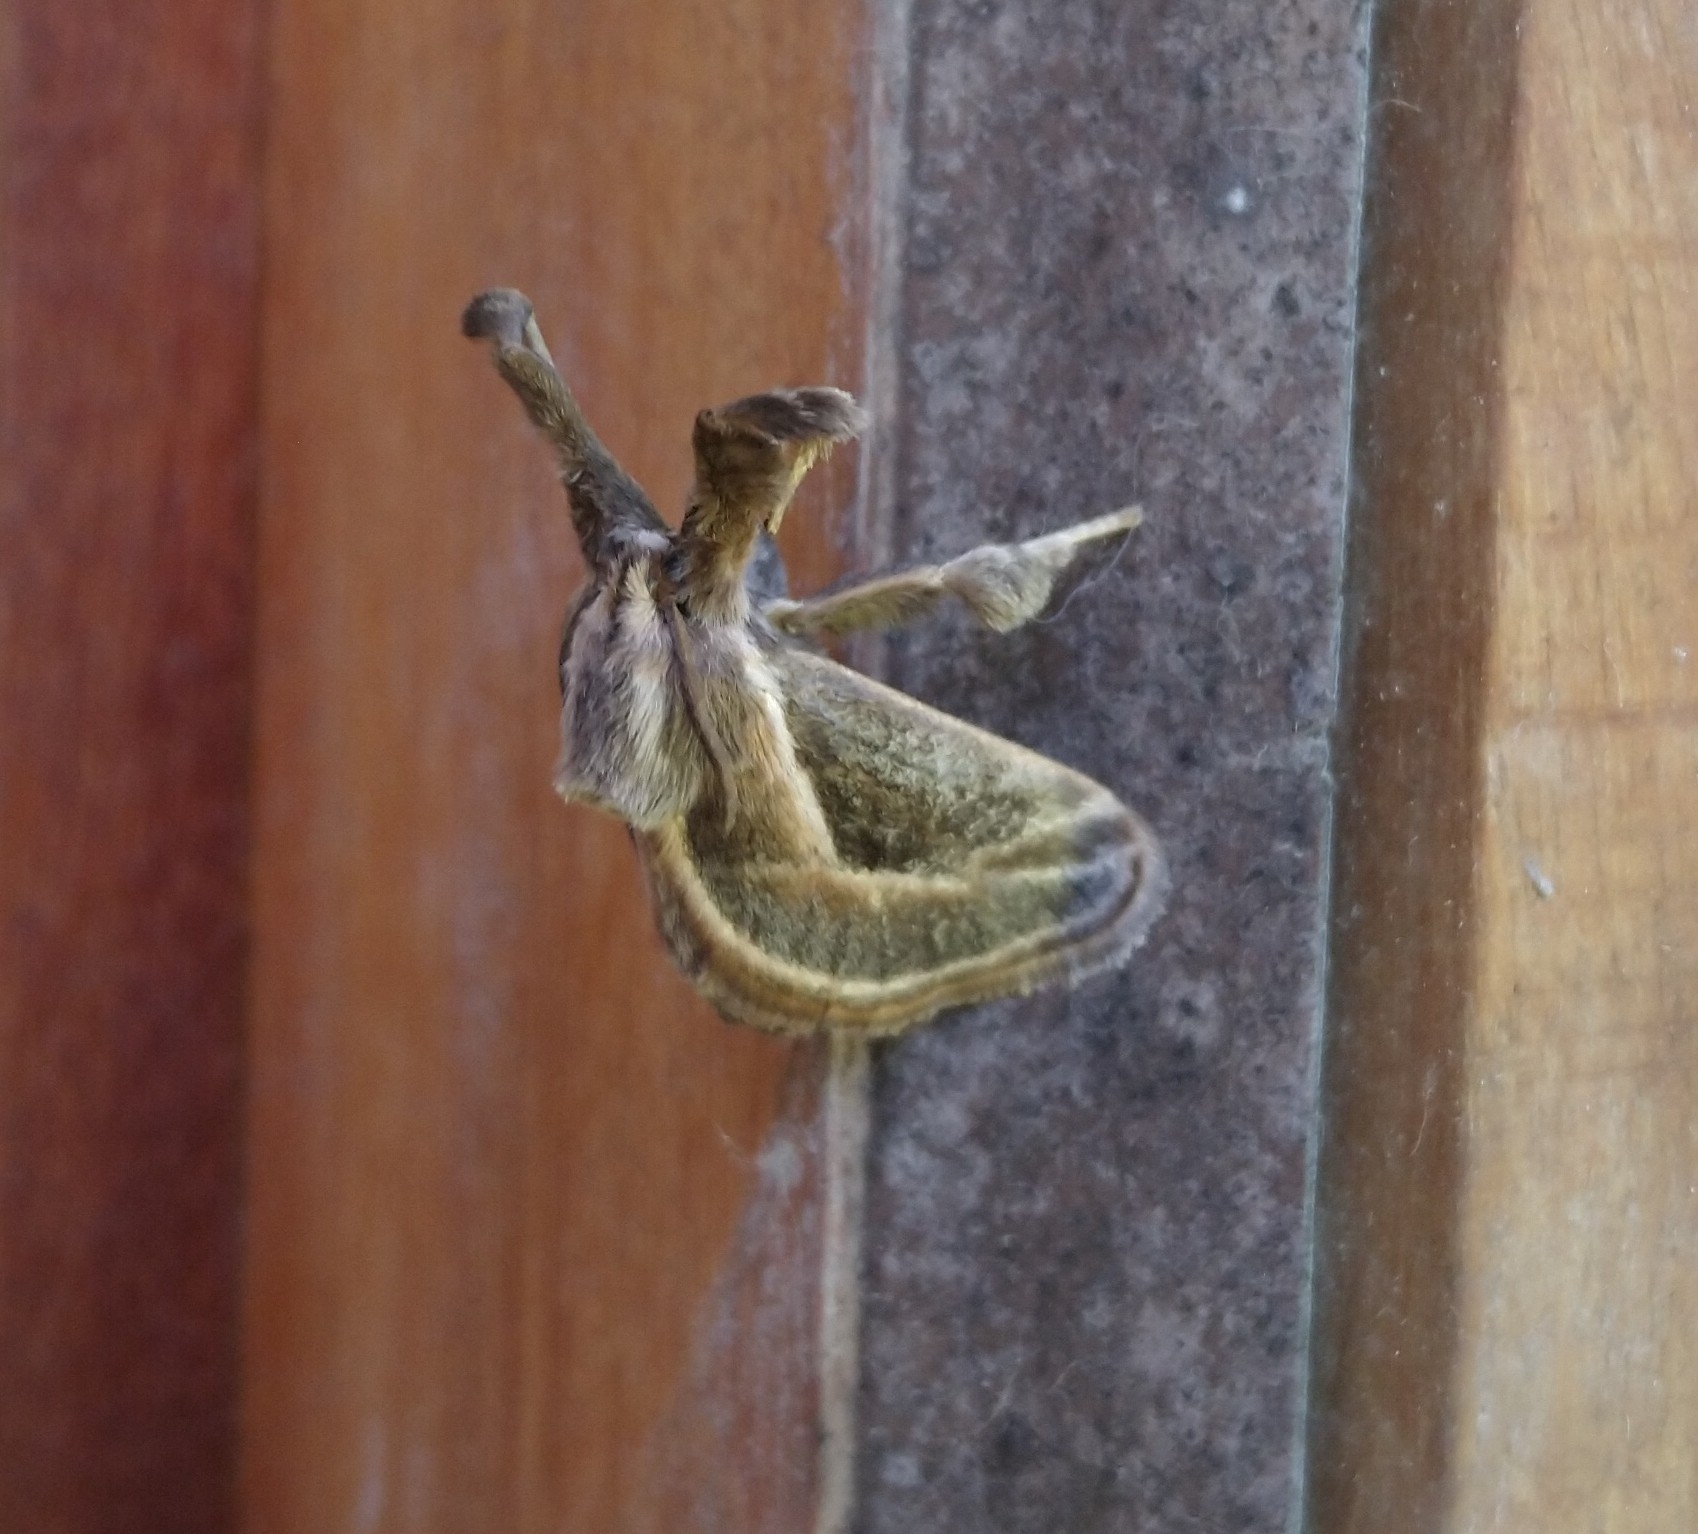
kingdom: Animalia
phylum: Arthropoda
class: Insecta
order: Lepidoptera
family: Limacodidae
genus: Perola
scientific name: Perola brumalis
